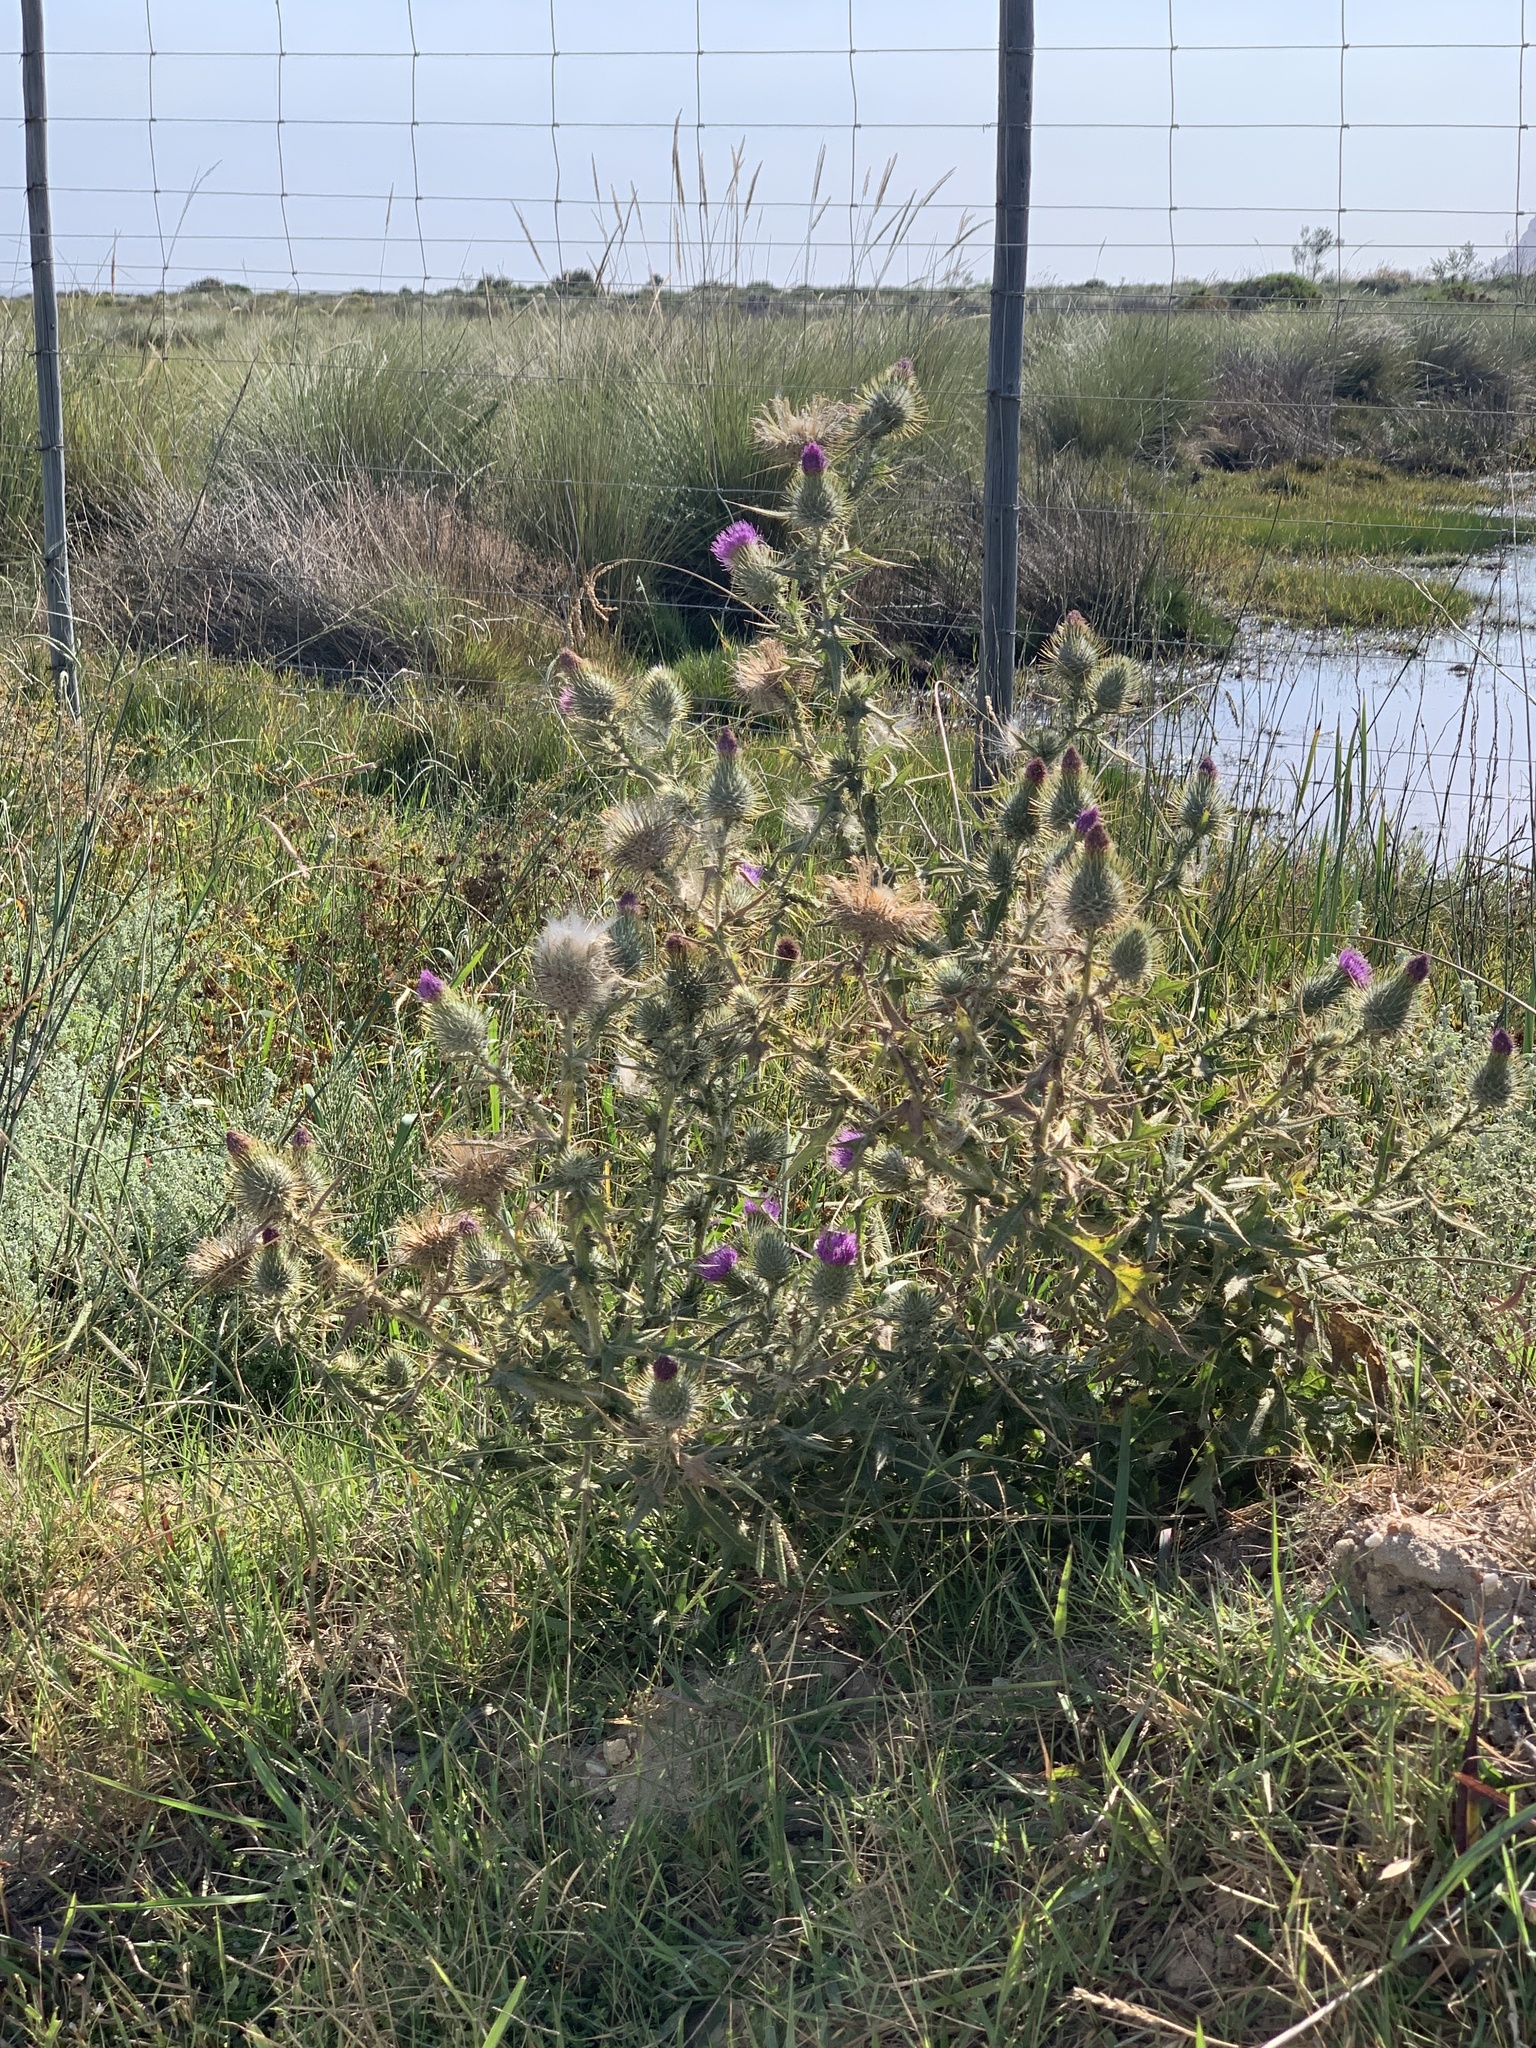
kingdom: Plantae
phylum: Tracheophyta
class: Magnoliopsida
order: Asterales
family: Asteraceae
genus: Cirsium
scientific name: Cirsium vulgare
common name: Bull thistle
